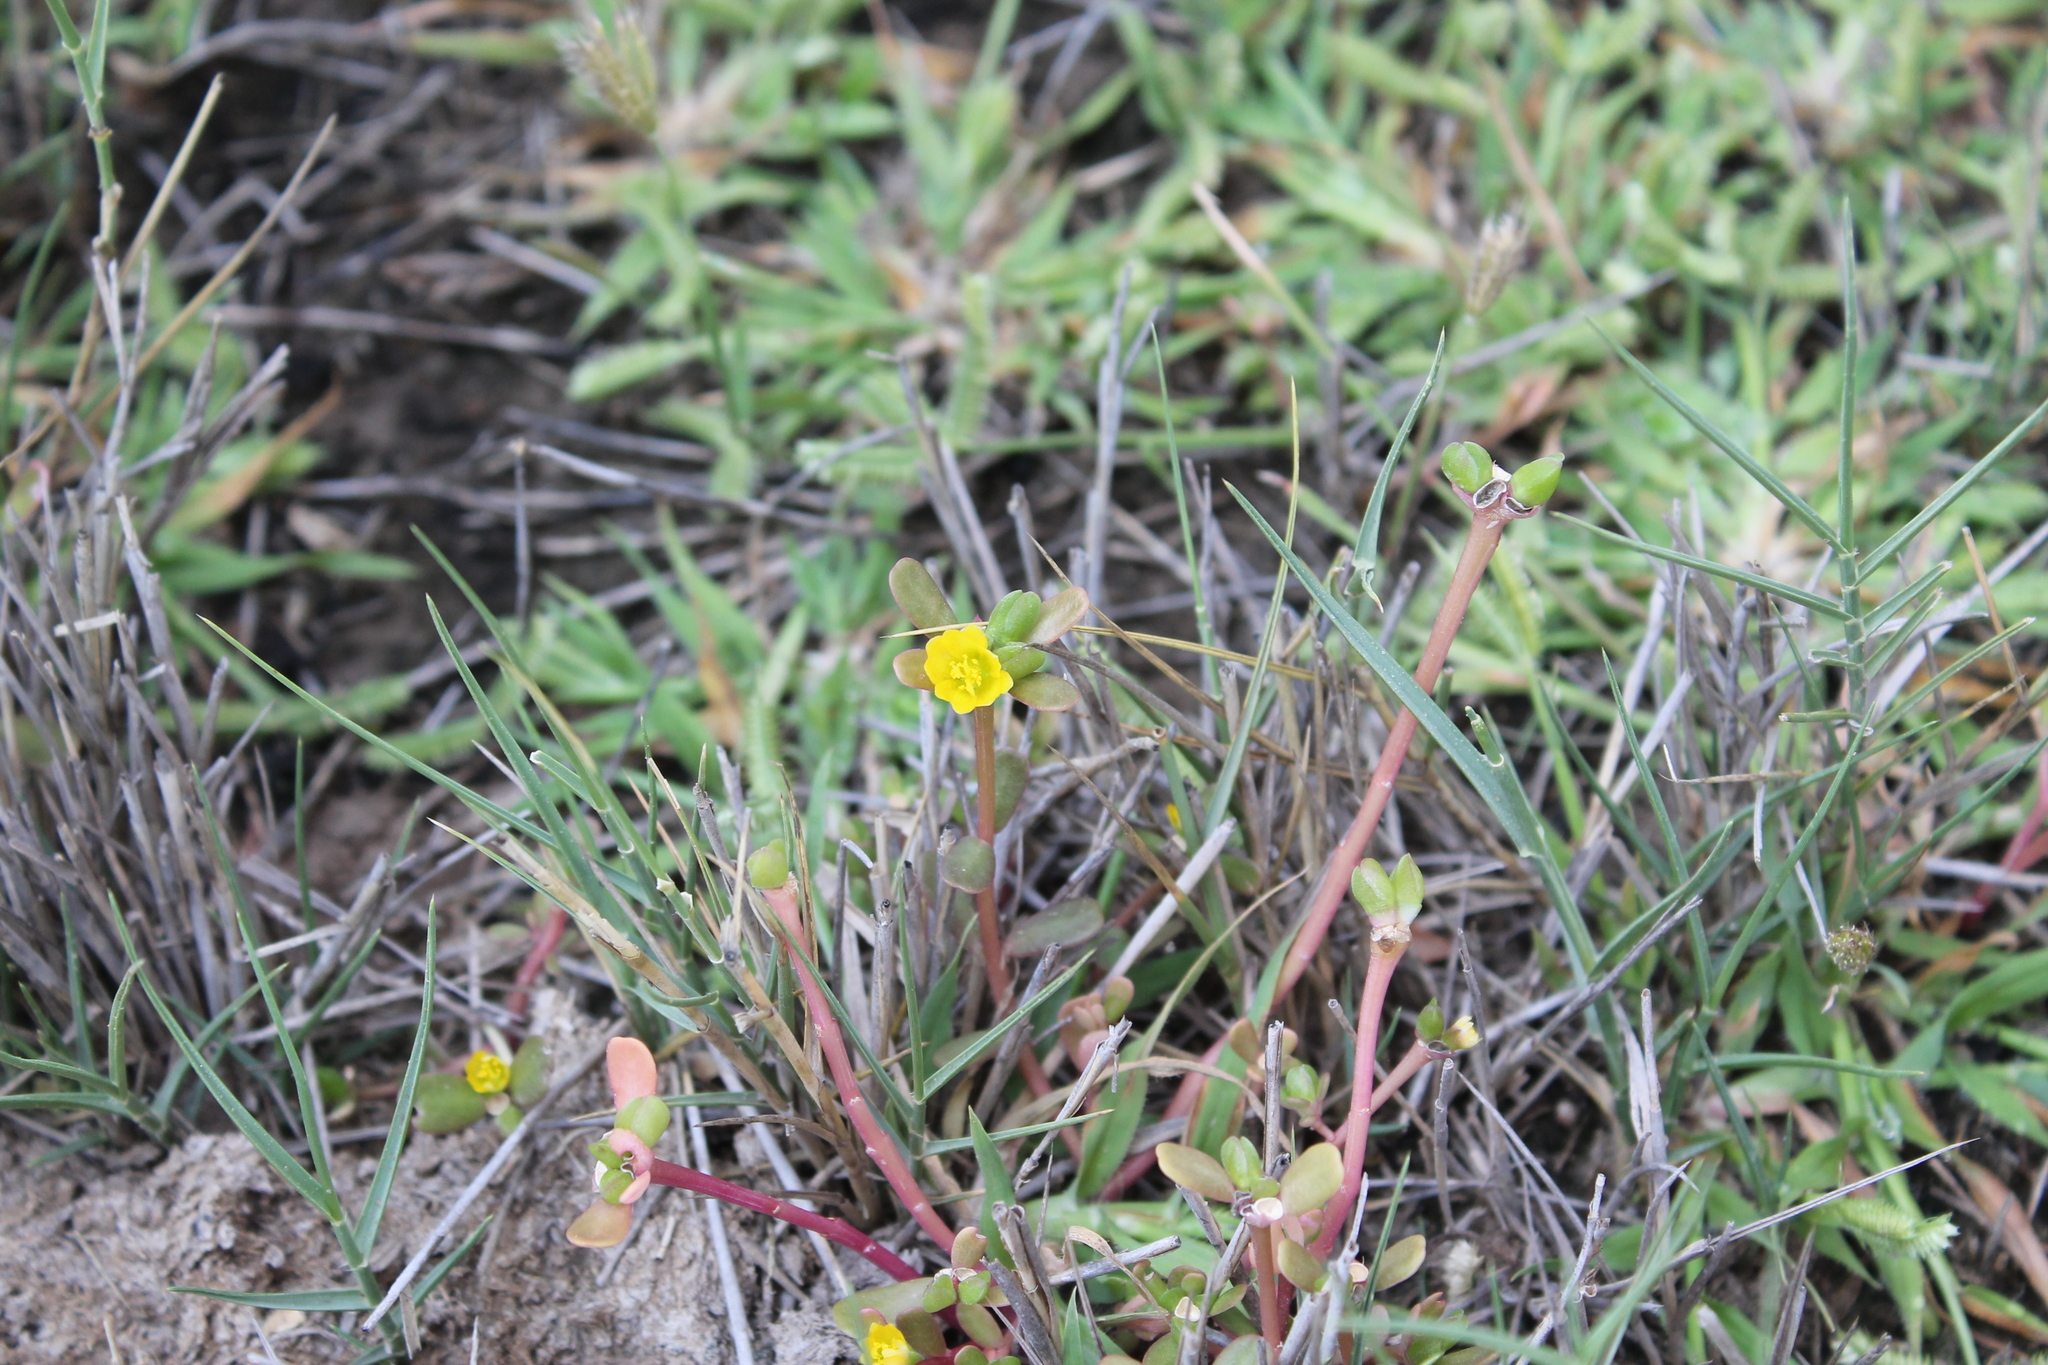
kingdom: Plantae
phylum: Tracheophyta
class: Magnoliopsida
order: Caryophyllales
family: Portulacaceae
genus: Portulaca
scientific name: Portulaca oleracea
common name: Common purslane
